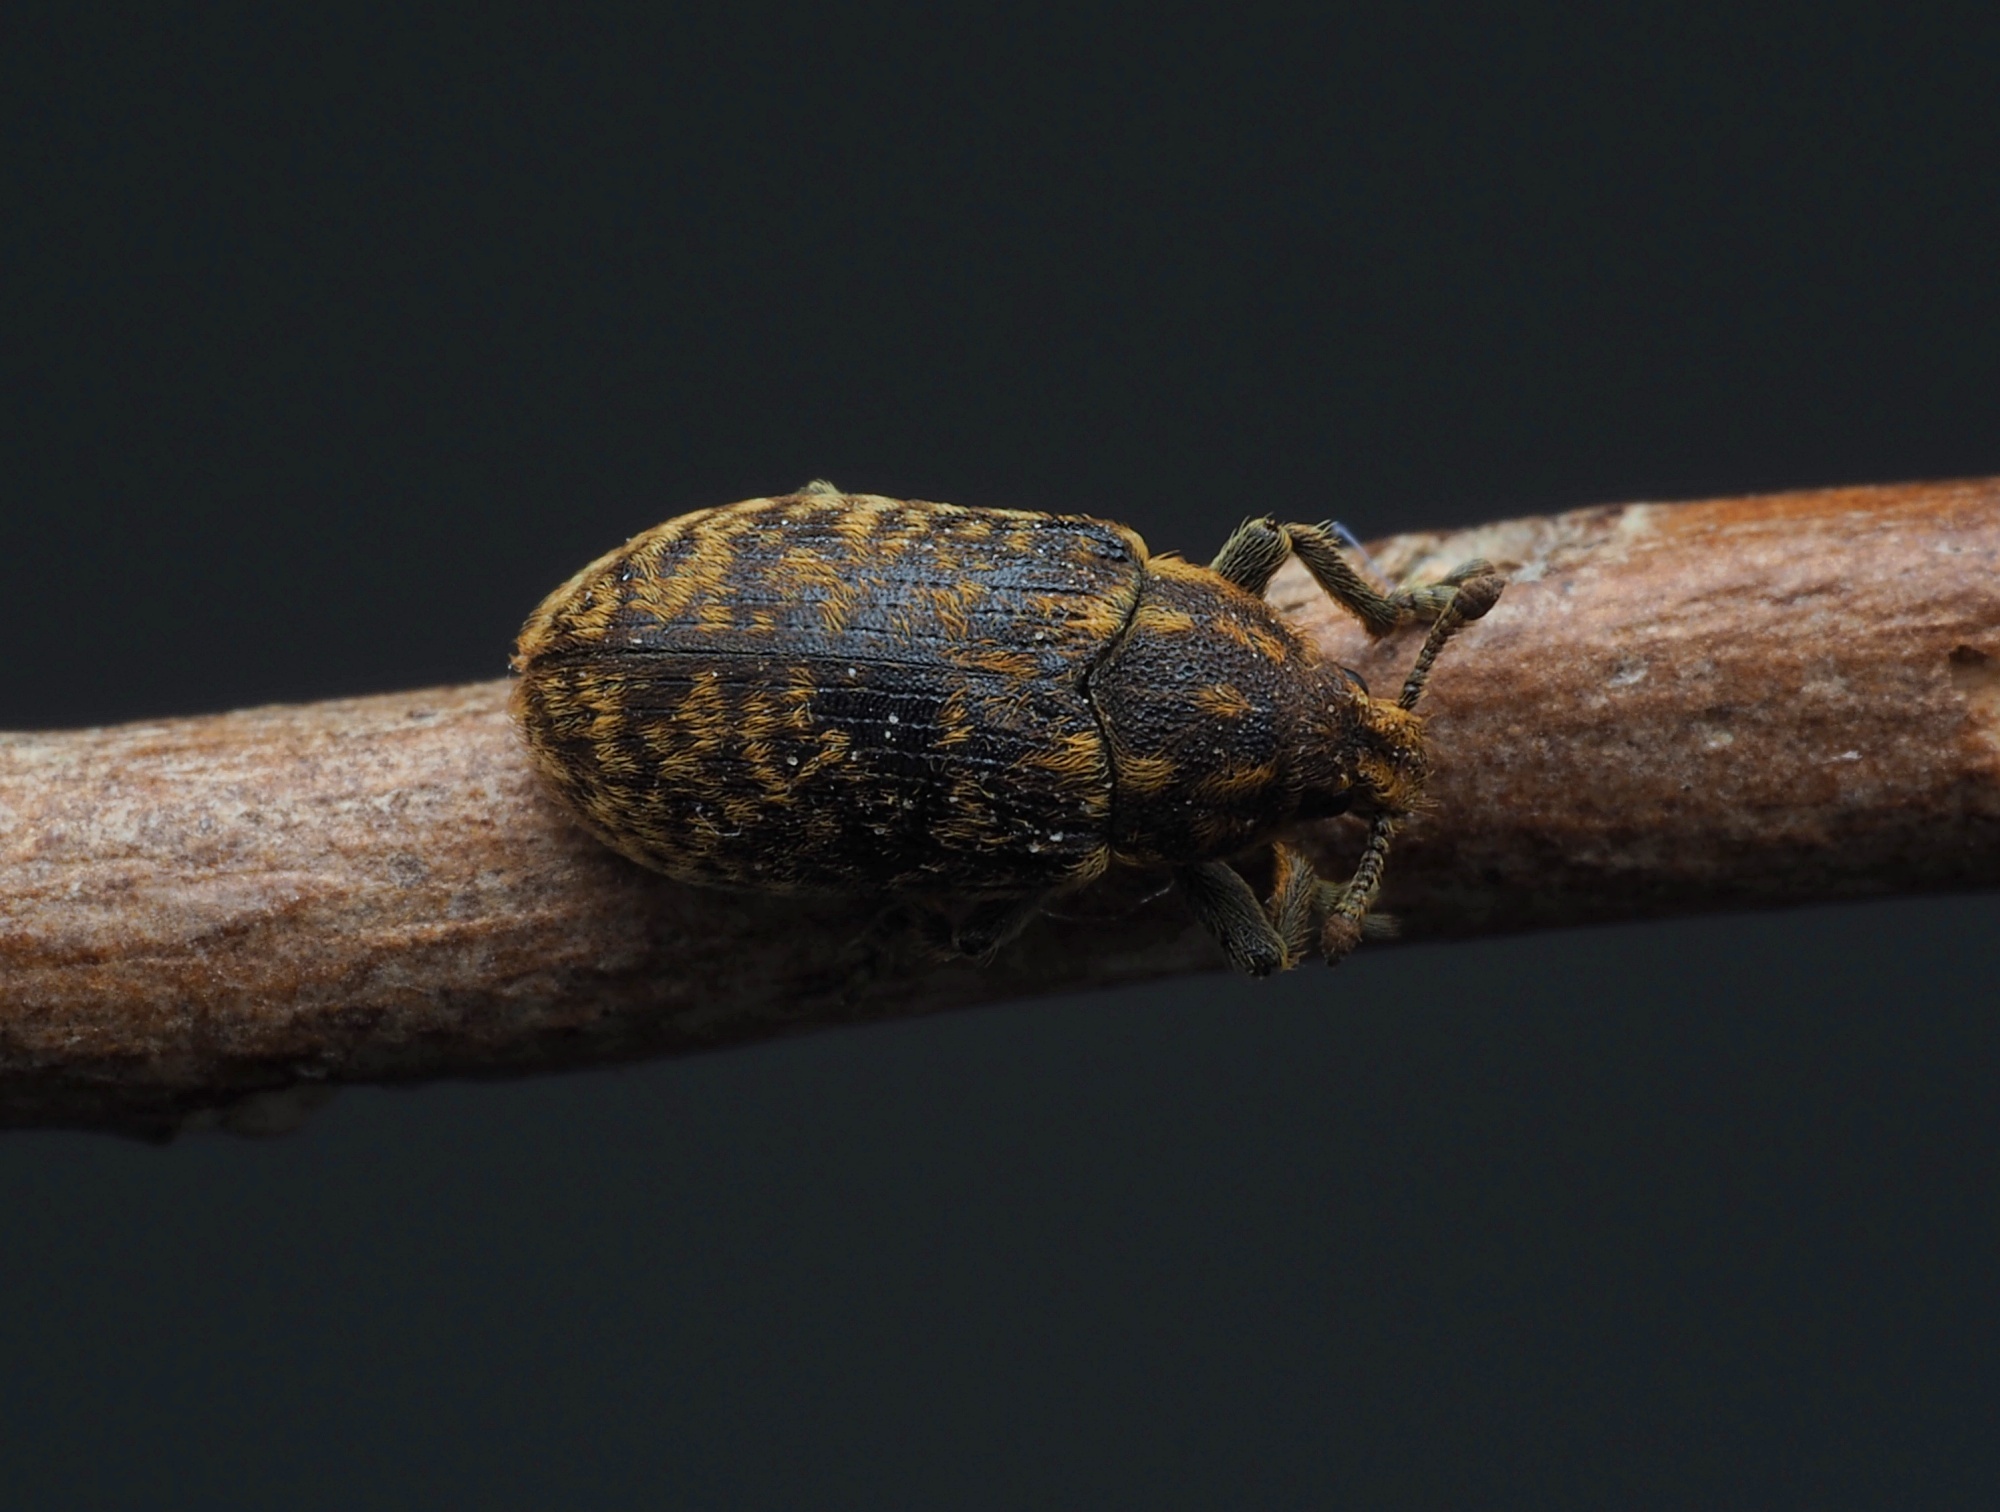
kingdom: Animalia
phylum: Arthropoda
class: Insecta
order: Coleoptera
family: Curculionidae
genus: Rhinocyllus
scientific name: Rhinocyllus conicus
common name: Weevil
